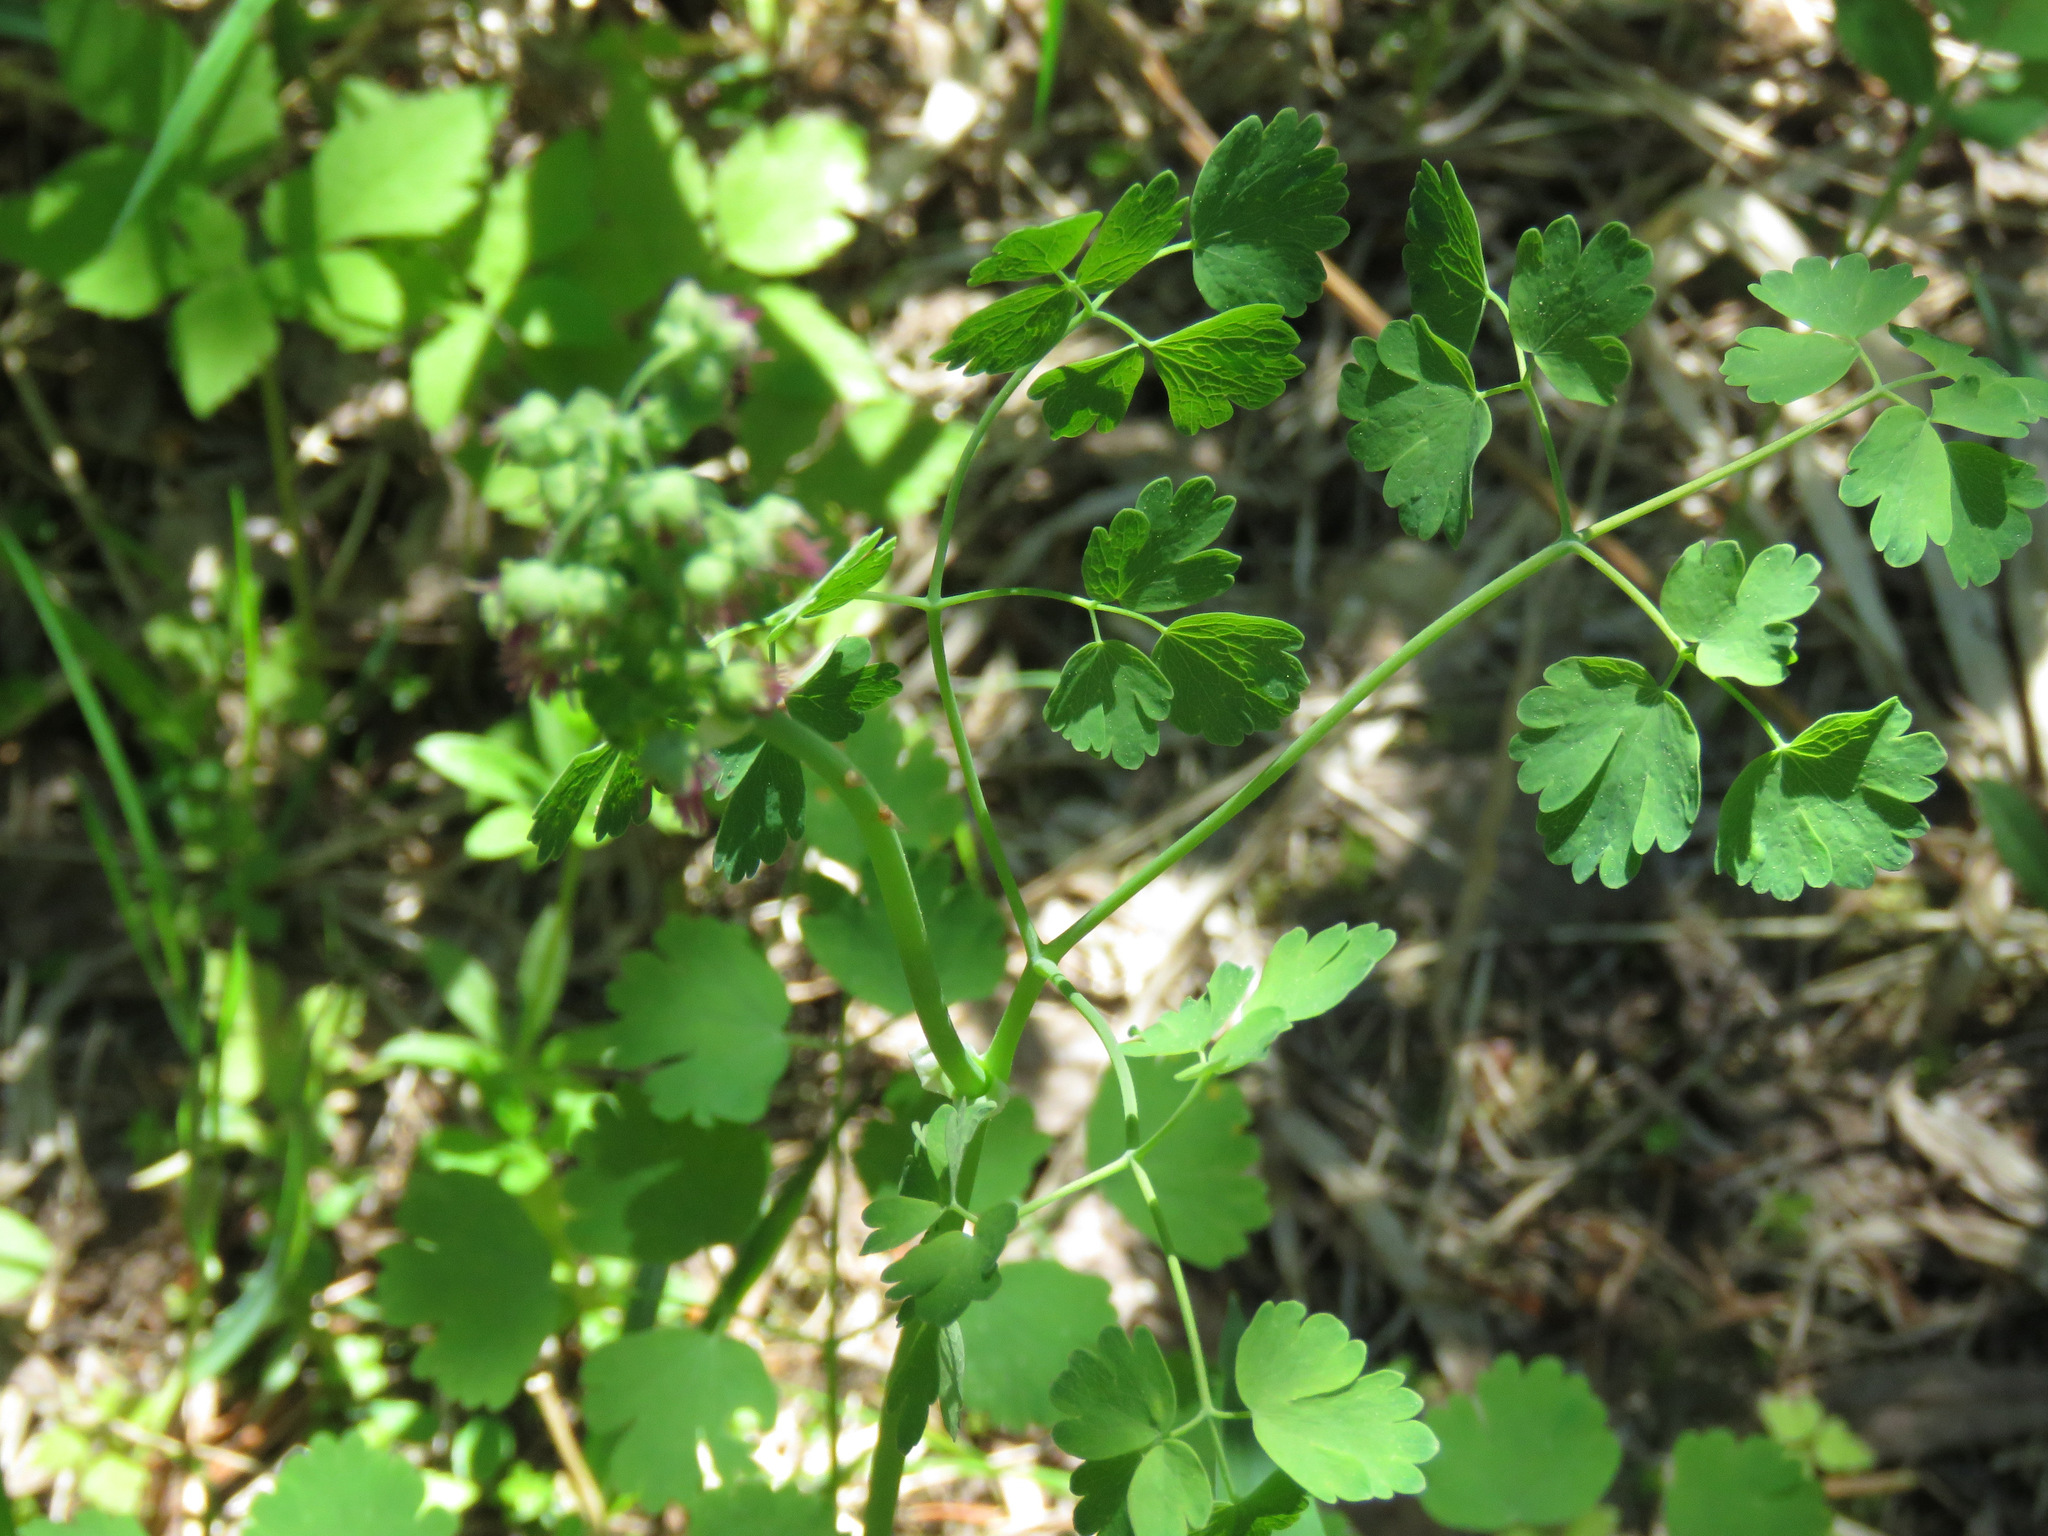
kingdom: Plantae
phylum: Tracheophyta
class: Magnoliopsida
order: Ranunculales
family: Ranunculaceae
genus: Thalictrum
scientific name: Thalictrum occidentale
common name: Western meadow-rue
